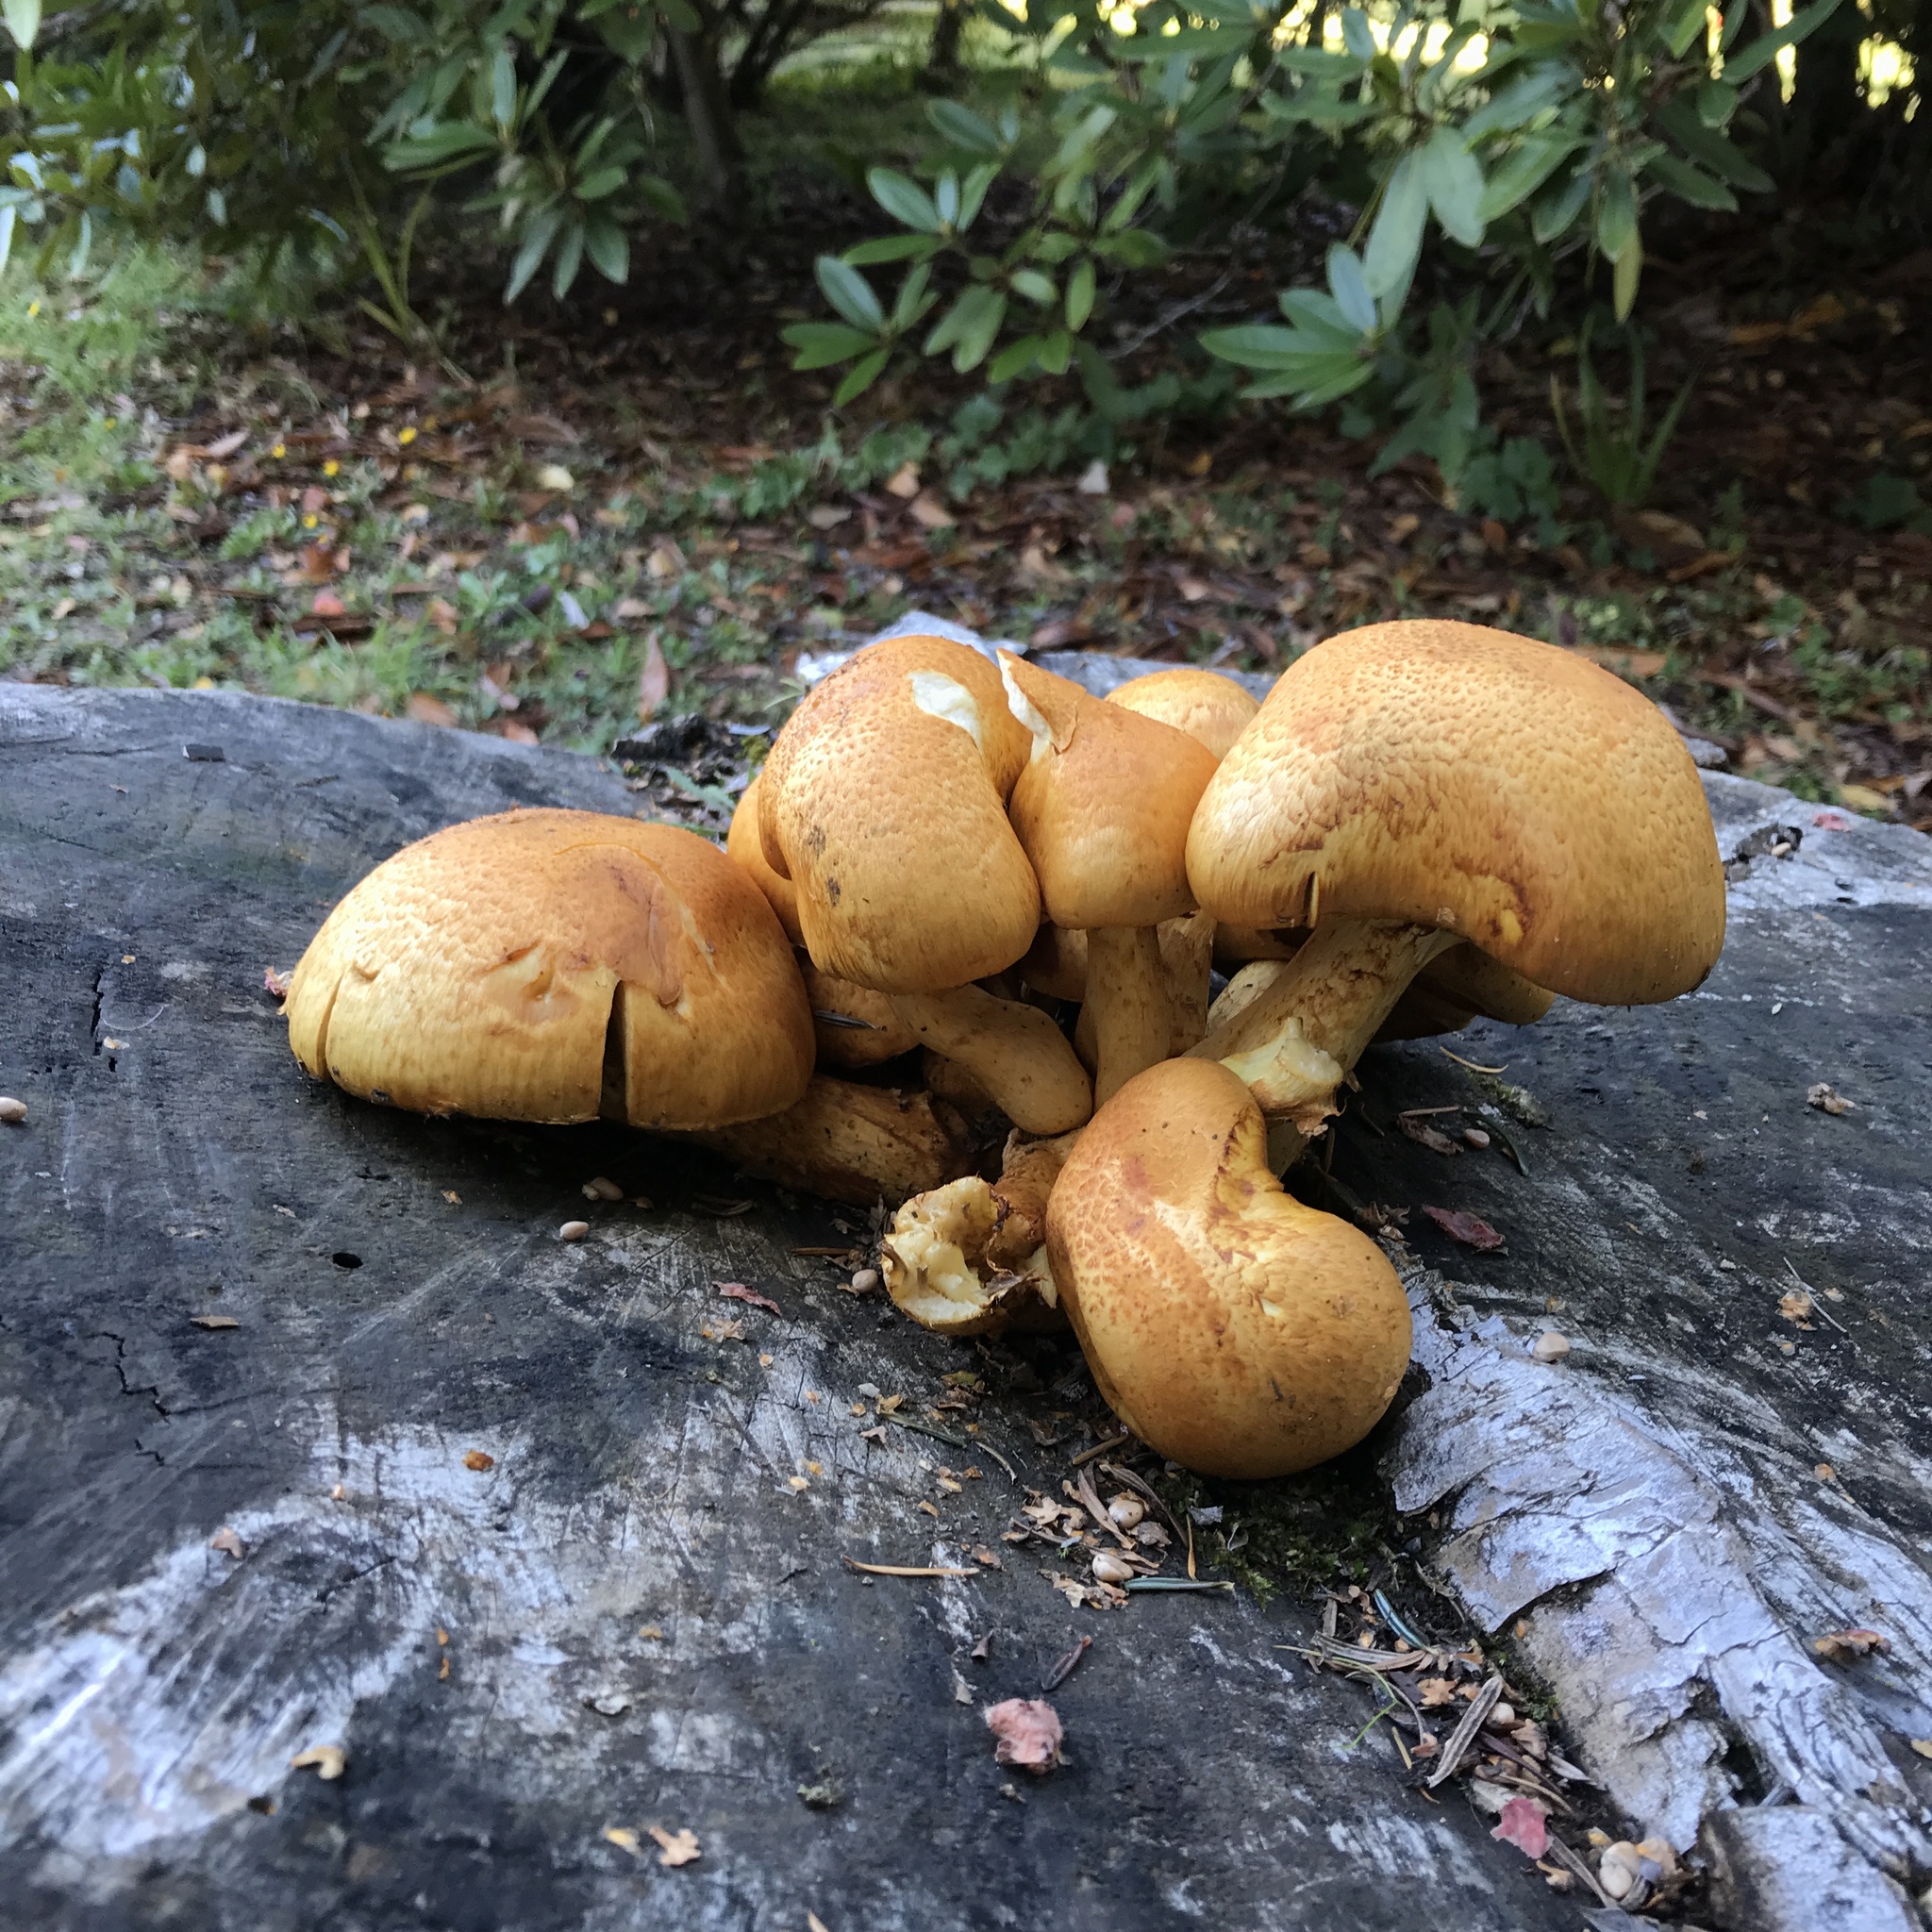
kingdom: Fungi
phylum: Basidiomycota
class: Agaricomycetes
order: Agaricales
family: Hymenogastraceae
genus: Gymnopilus
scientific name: Gymnopilus junonius
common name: Spectacular rustgill
